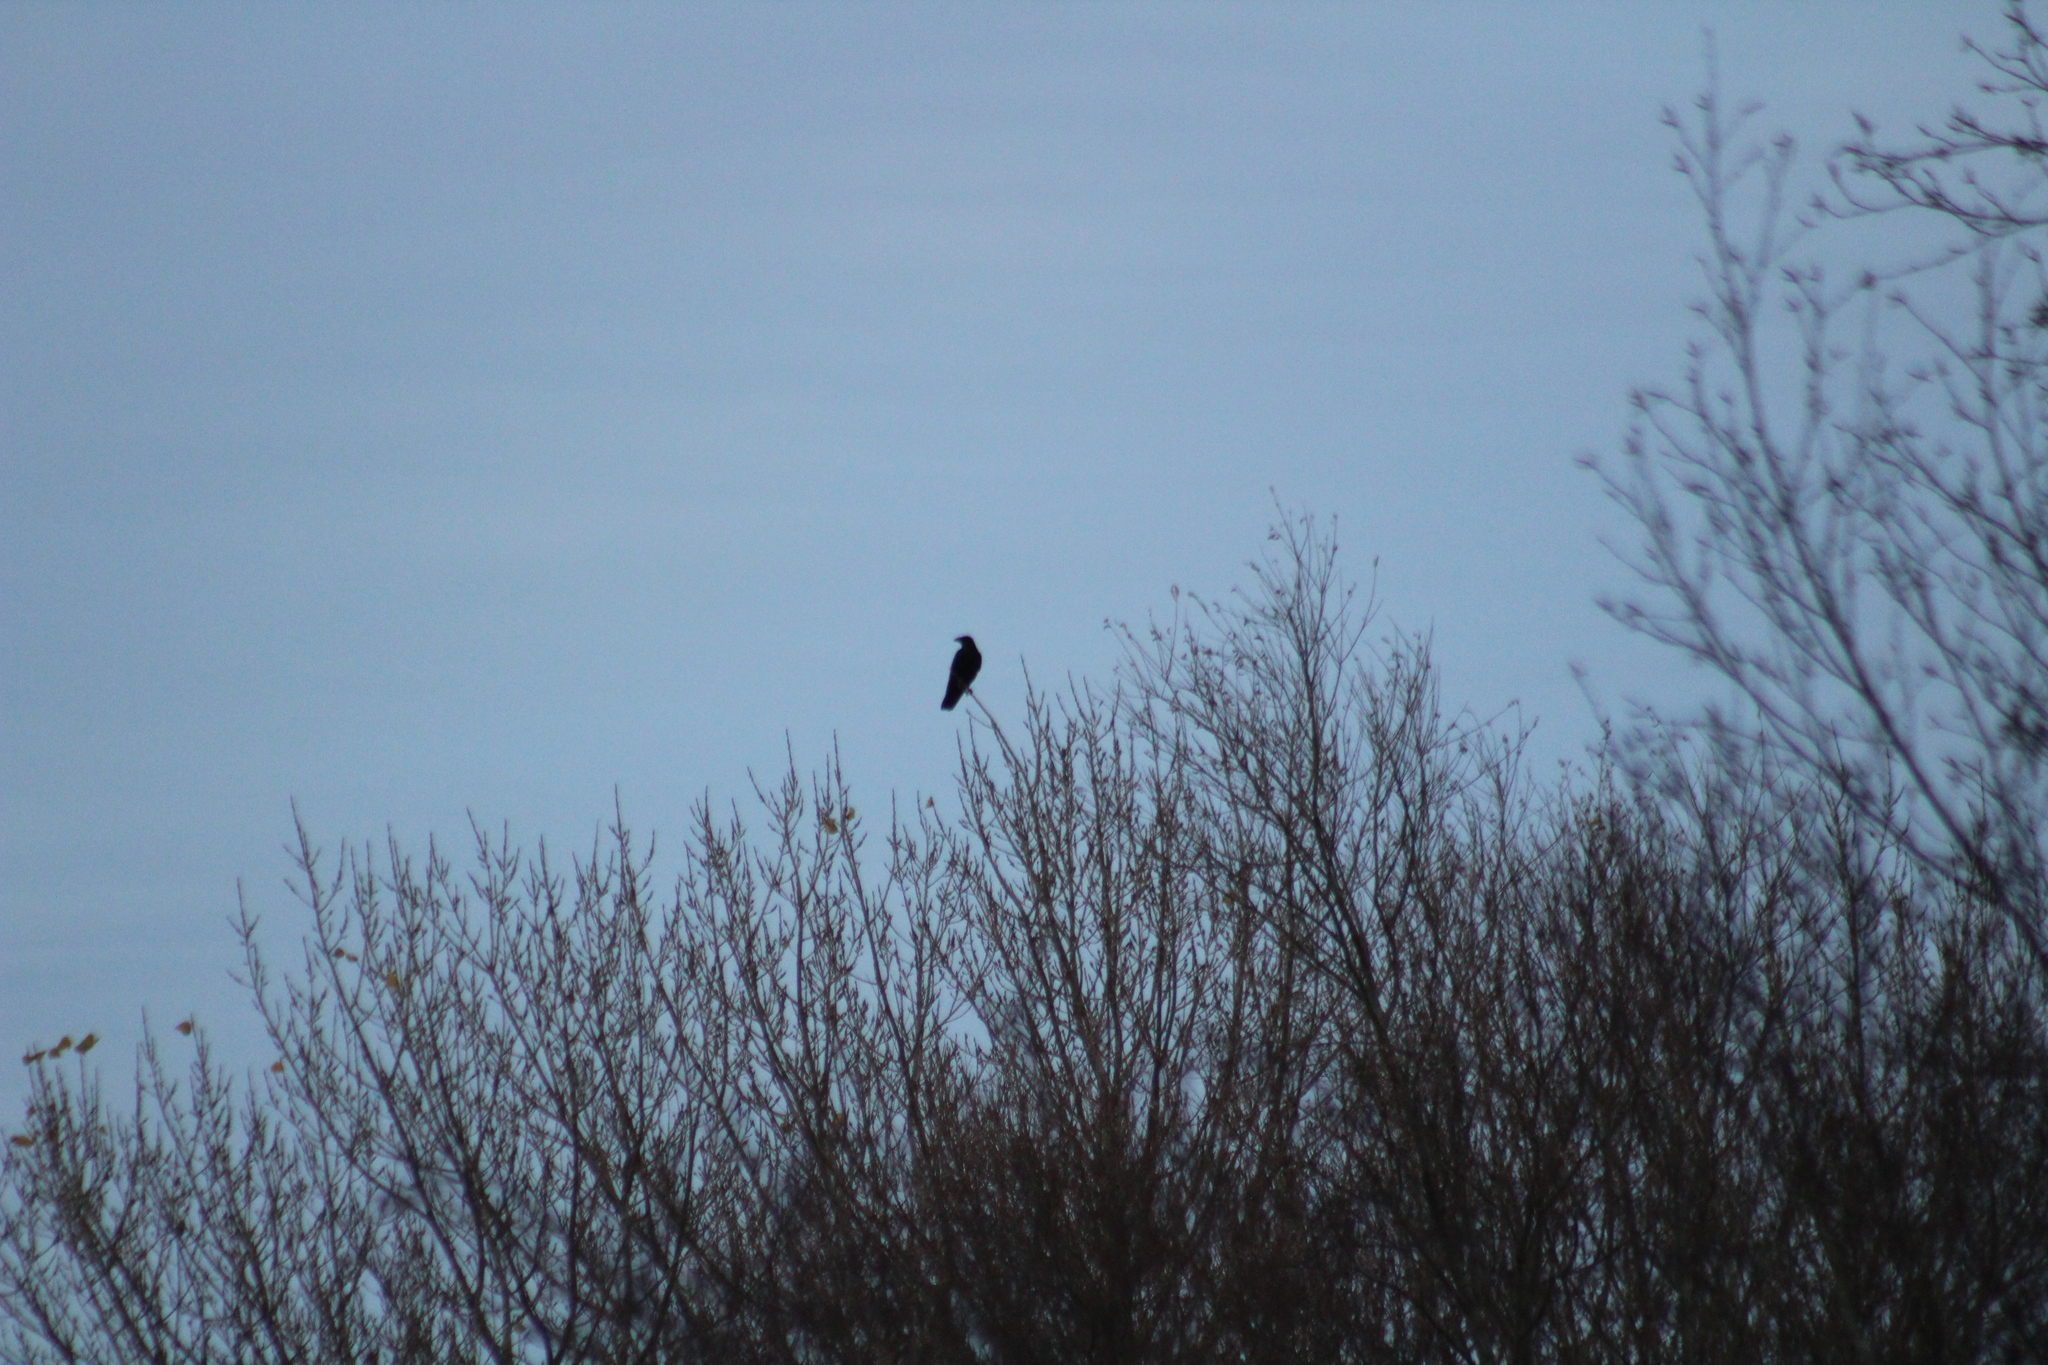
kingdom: Animalia
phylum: Chordata
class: Aves
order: Passeriformes
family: Corvidae
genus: Corvus
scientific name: Corvus corone
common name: Carrion crow
